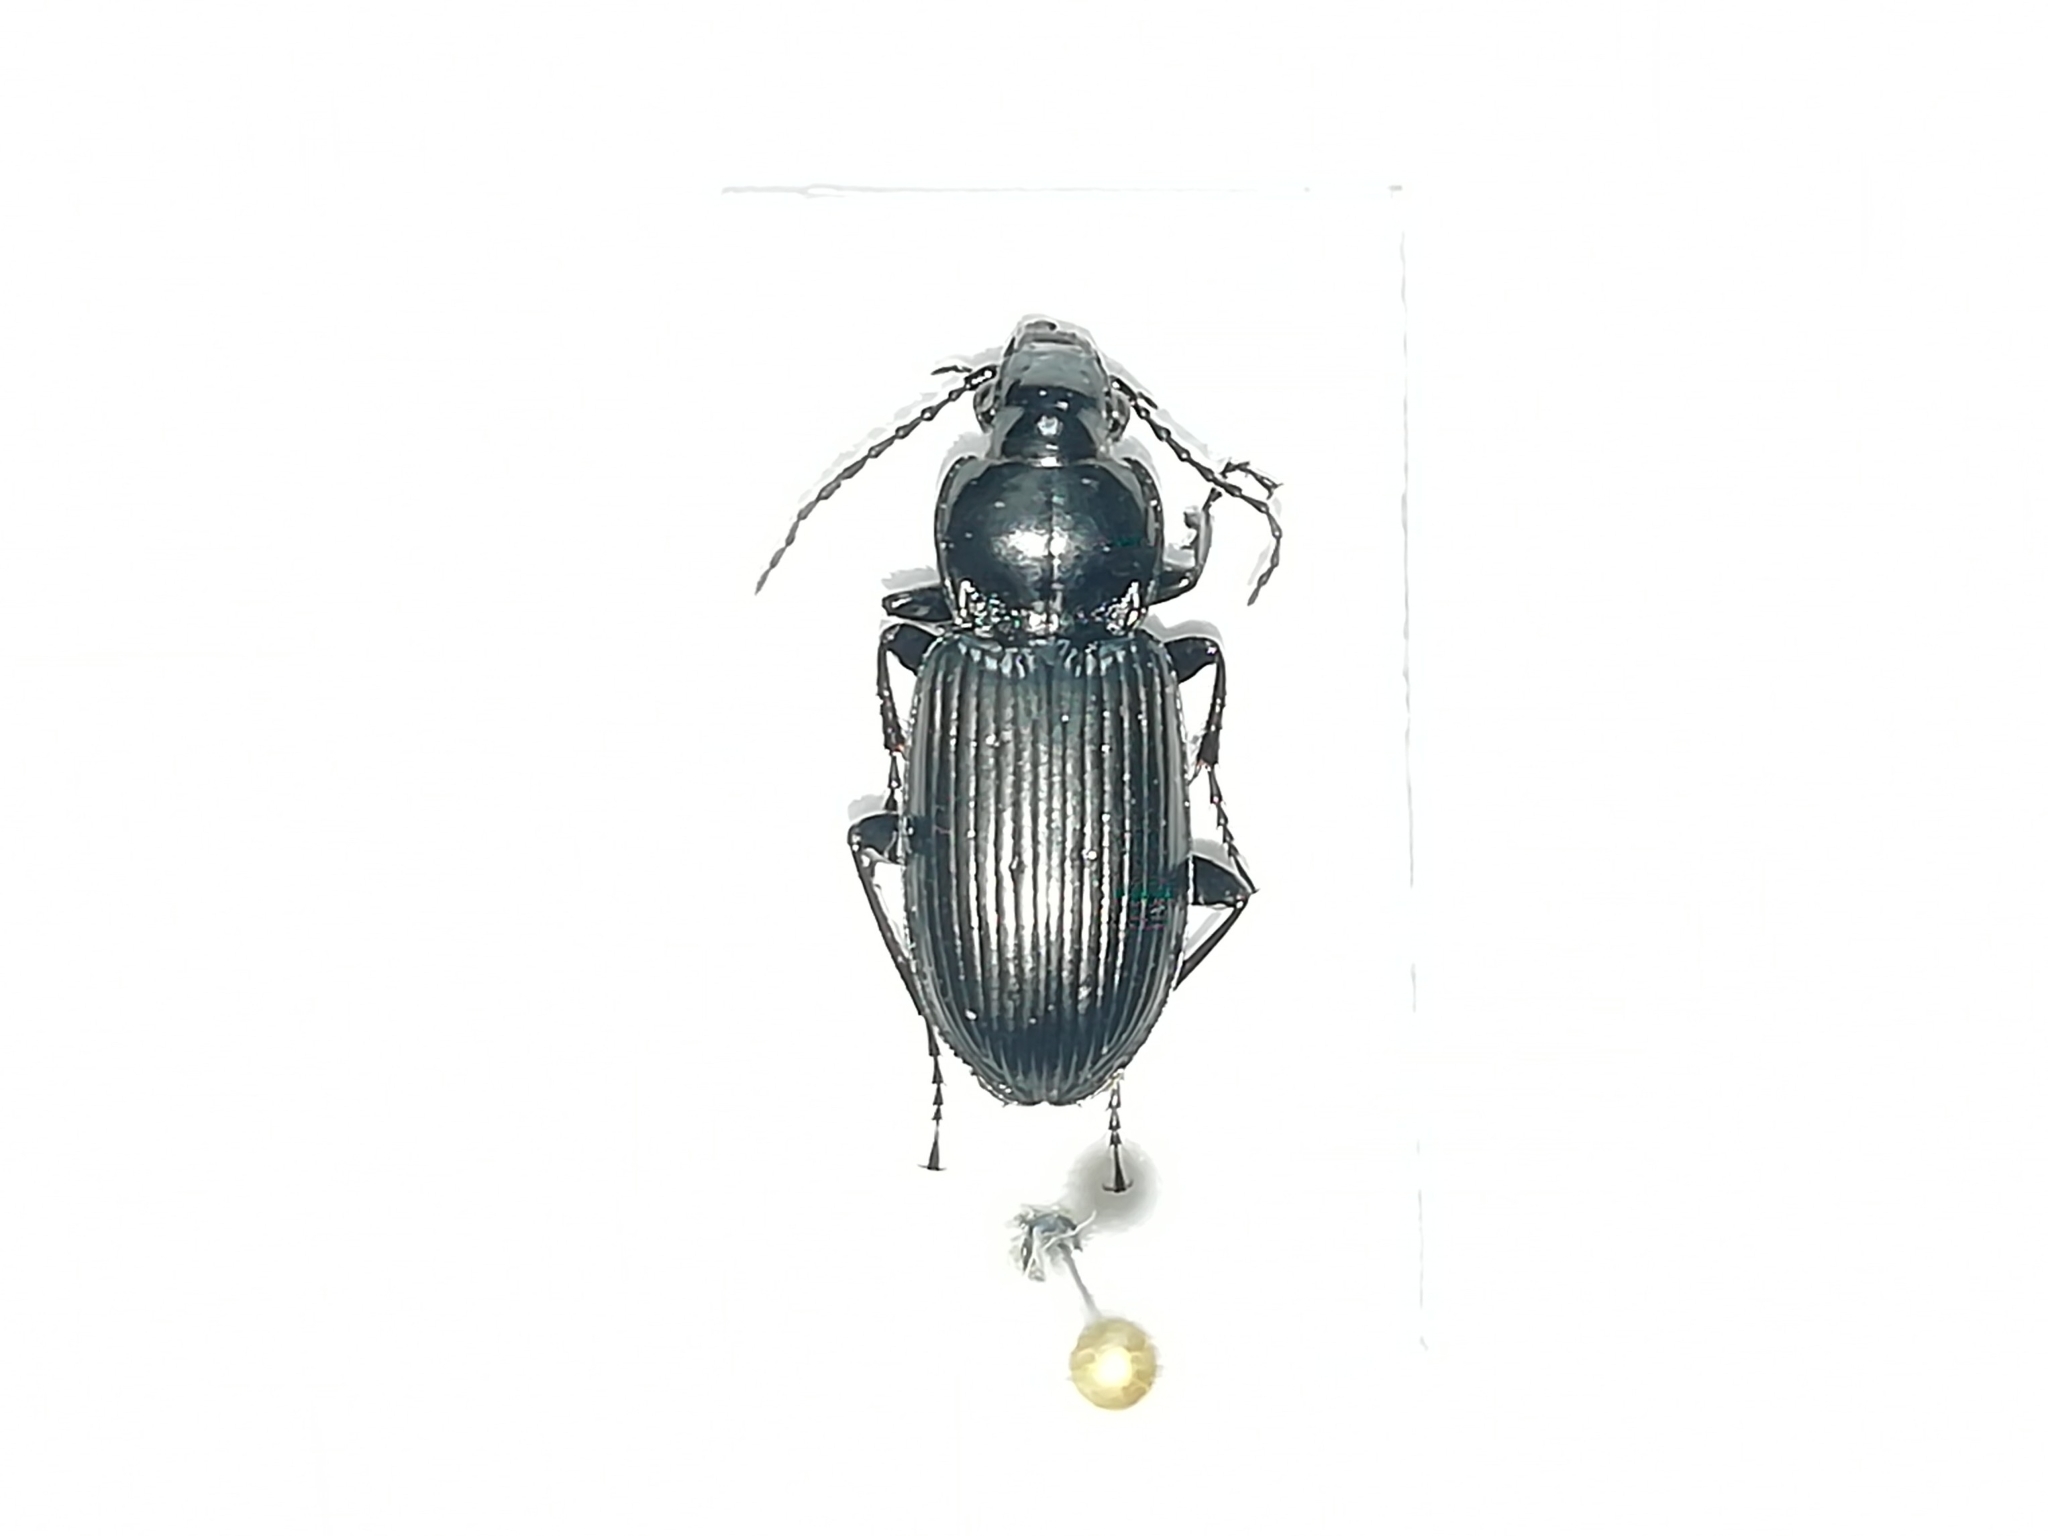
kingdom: Animalia
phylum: Arthropoda
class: Insecta
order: Coleoptera
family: Carabidae
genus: Pterostichus
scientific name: Pterostichus melanarius
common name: European dark harp ground beetle
